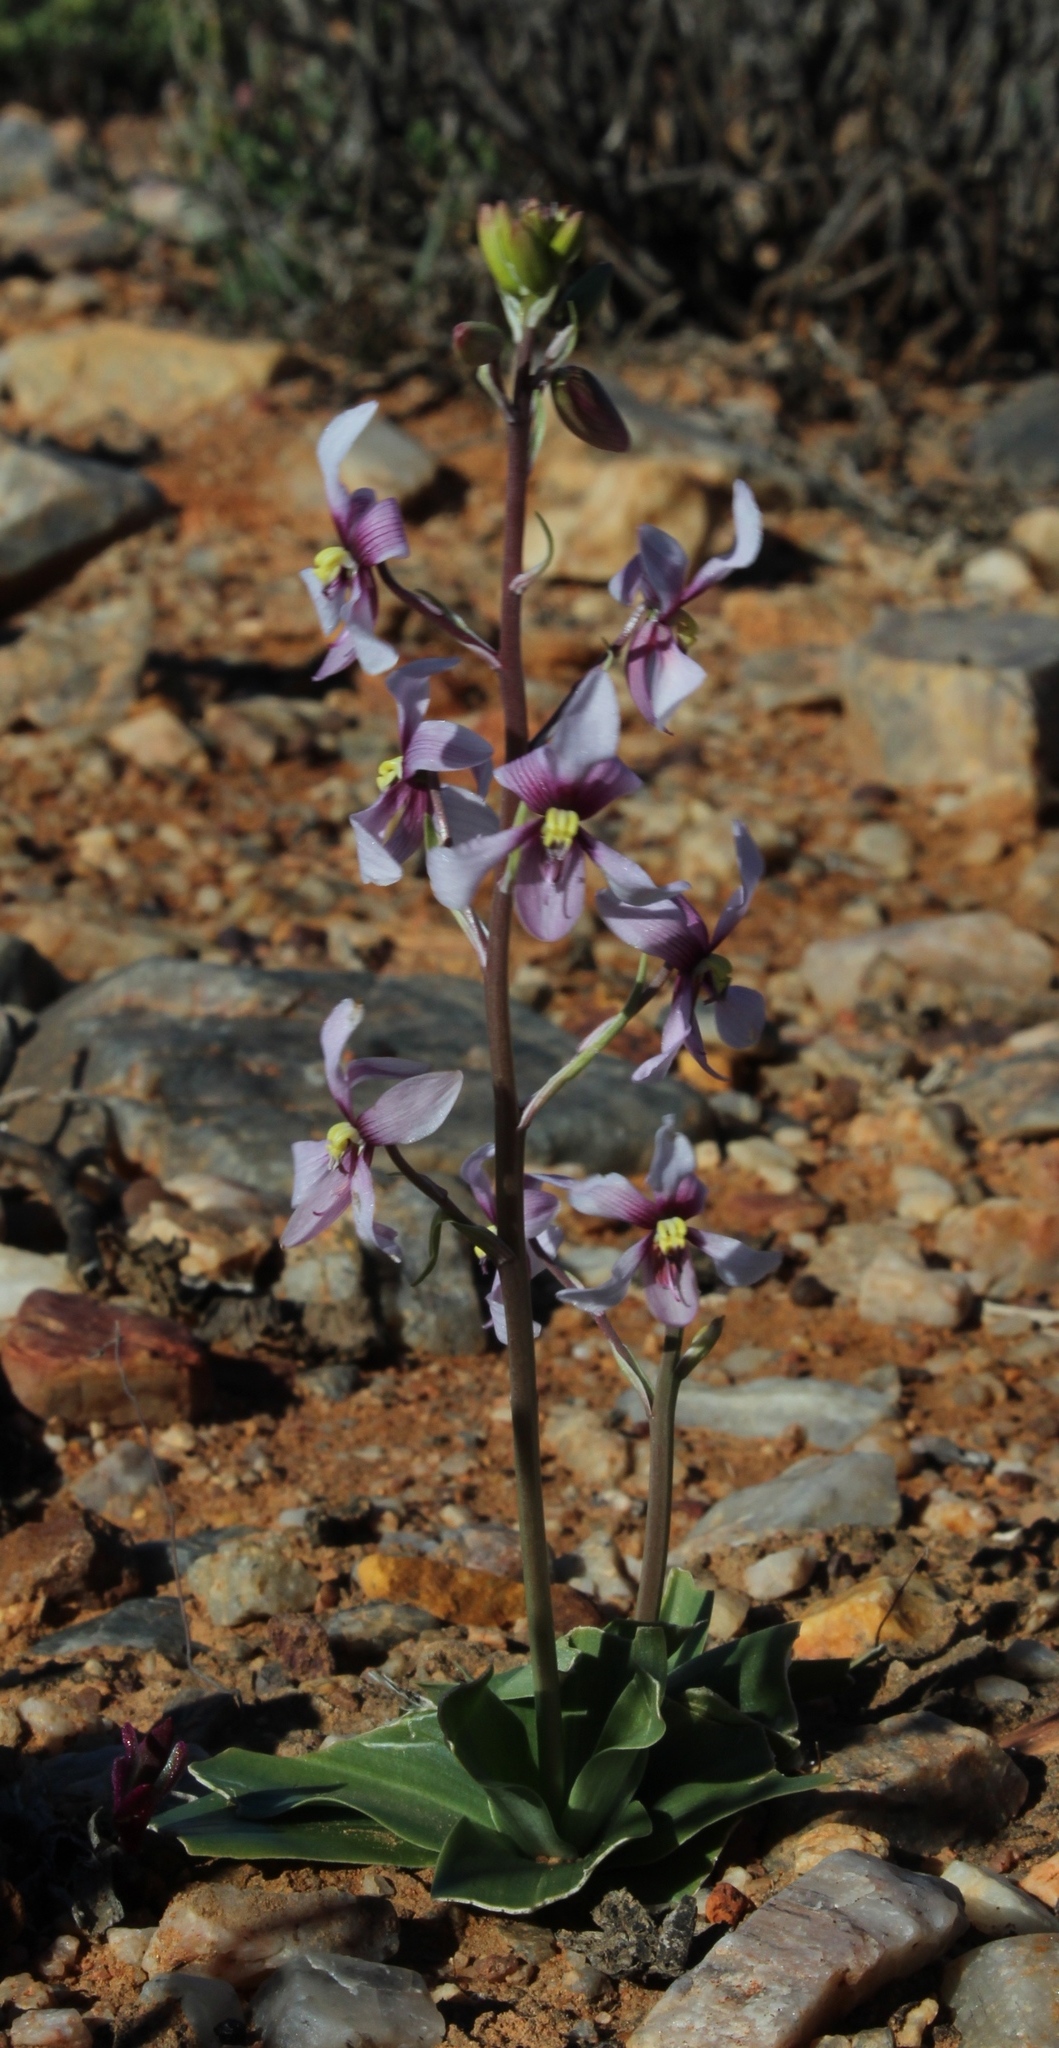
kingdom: Plantae
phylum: Tracheophyta
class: Liliopsida
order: Asparagales
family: Tecophilaeaceae
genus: Cyanella
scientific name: Cyanella orchidiformis
